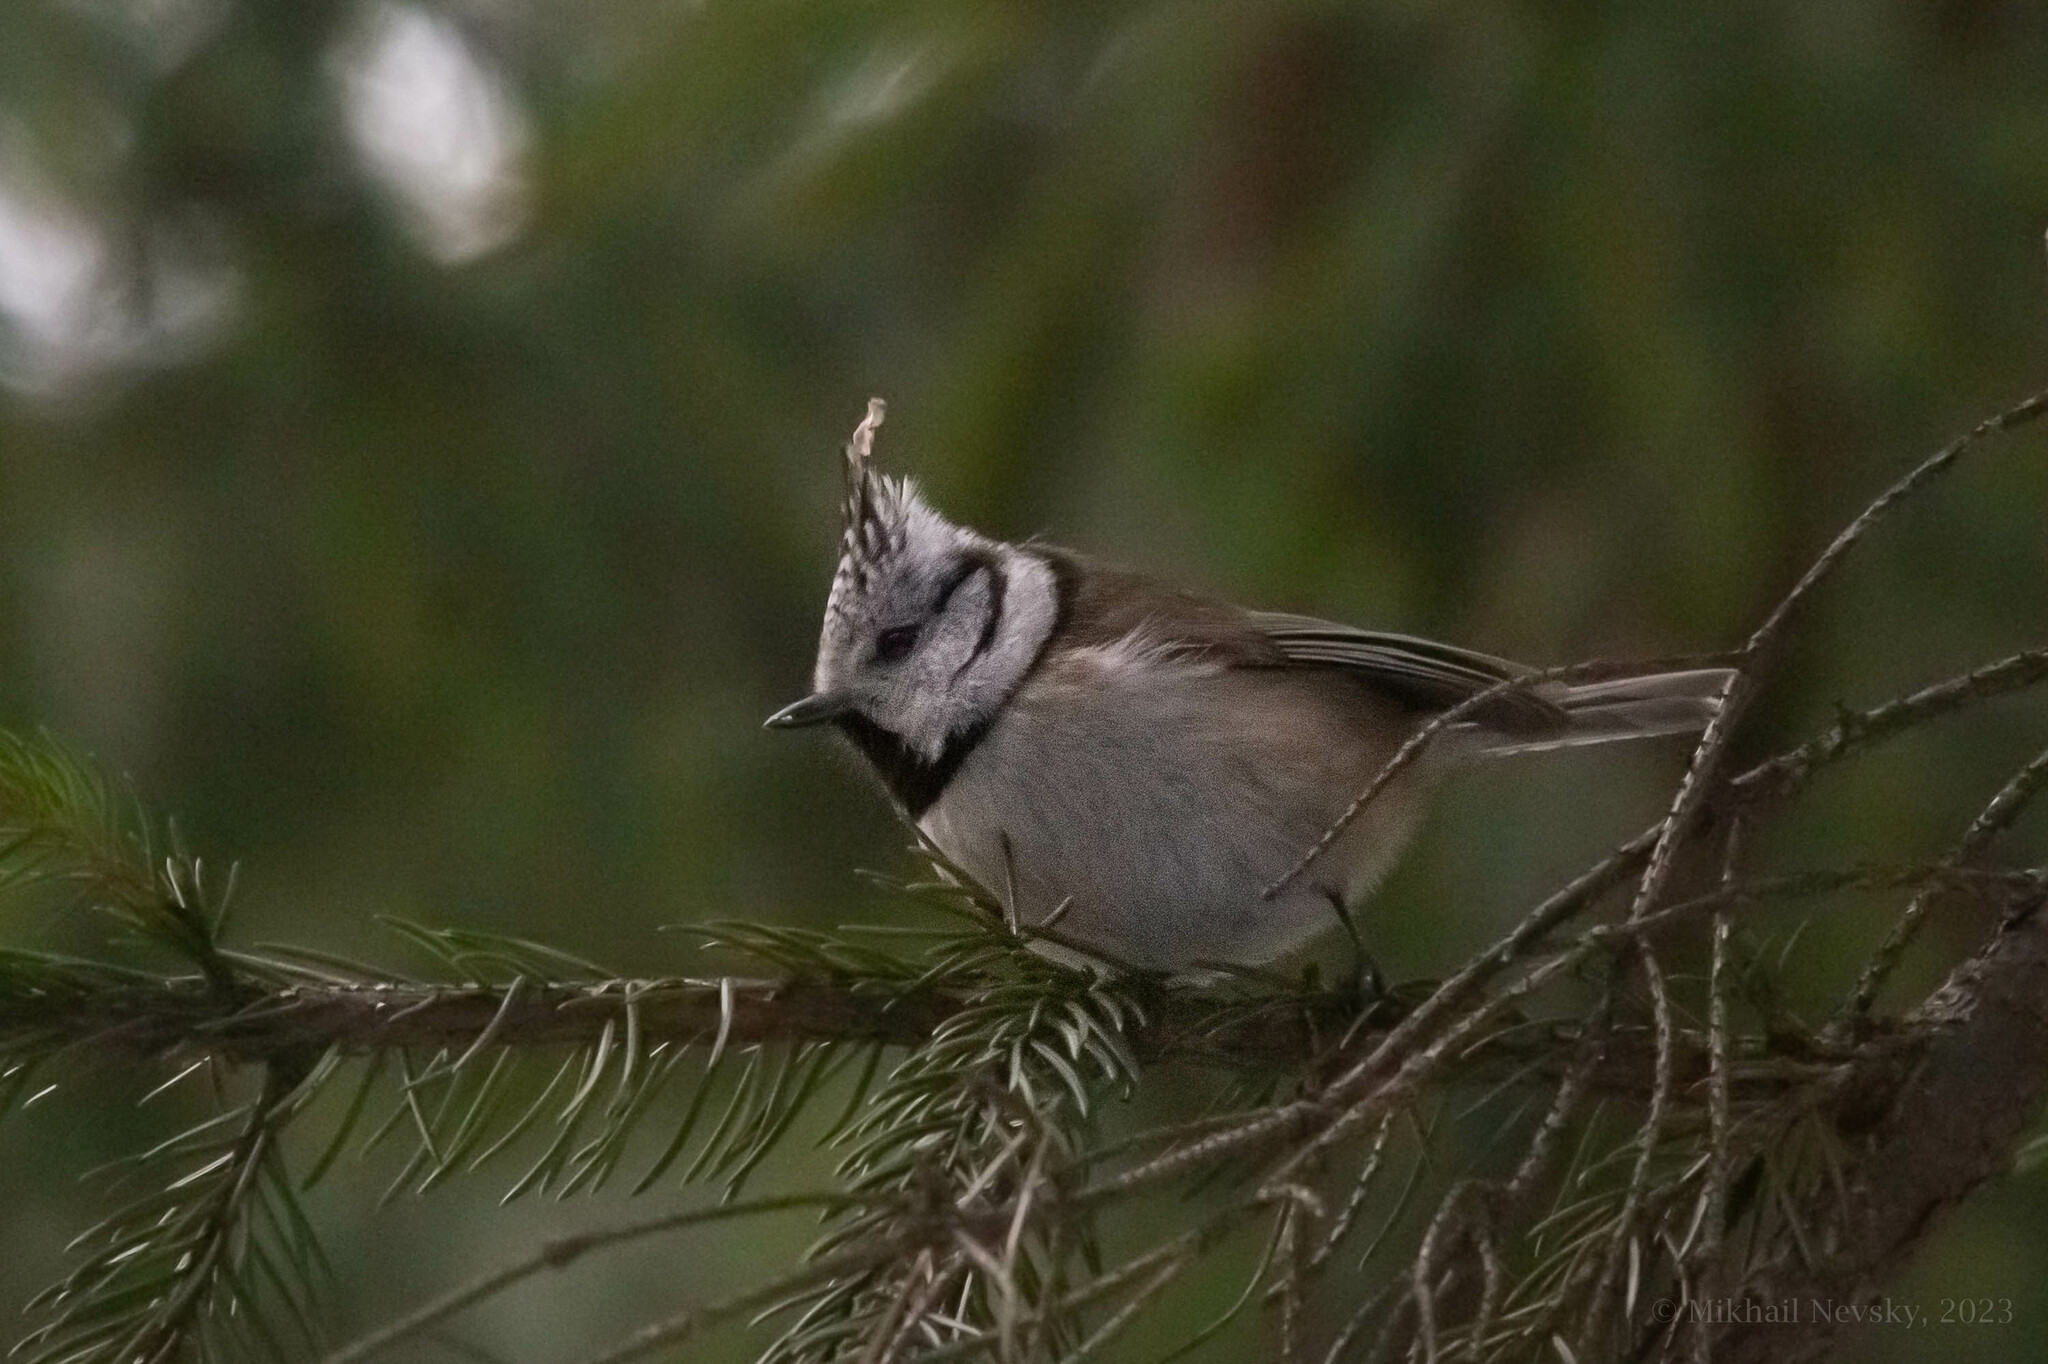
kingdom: Animalia
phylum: Chordata
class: Aves
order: Passeriformes
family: Paridae
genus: Lophophanes
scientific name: Lophophanes cristatus
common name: European crested tit
